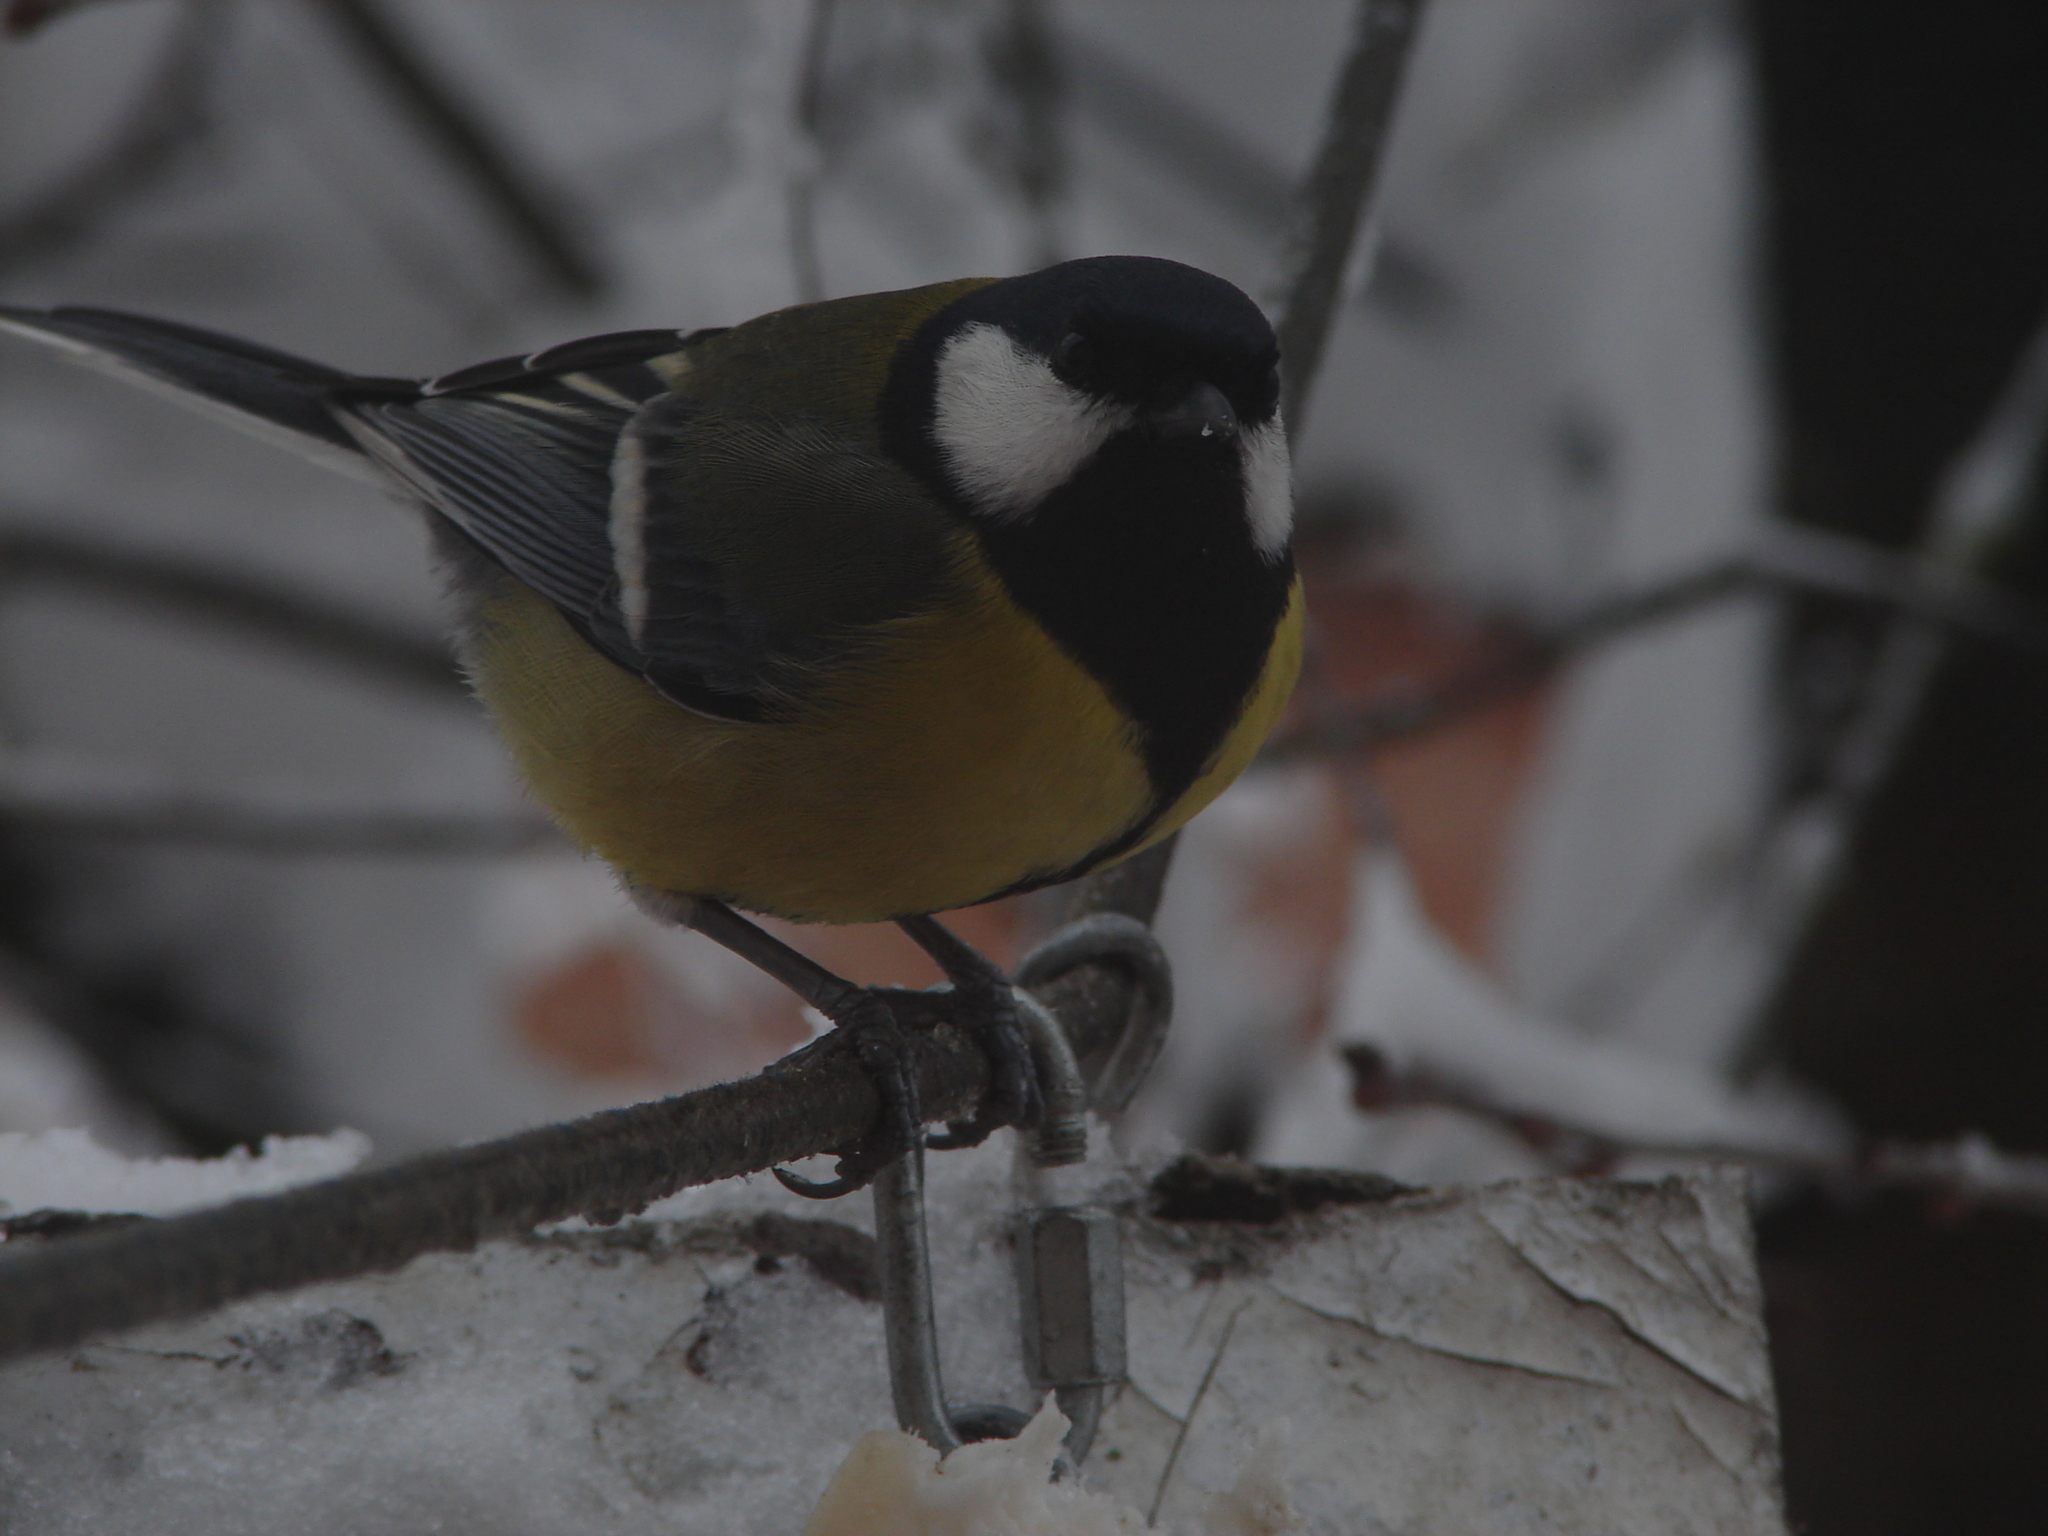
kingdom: Animalia
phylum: Chordata
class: Aves
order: Passeriformes
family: Paridae
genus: Parus
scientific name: Parus major
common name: Great tit
